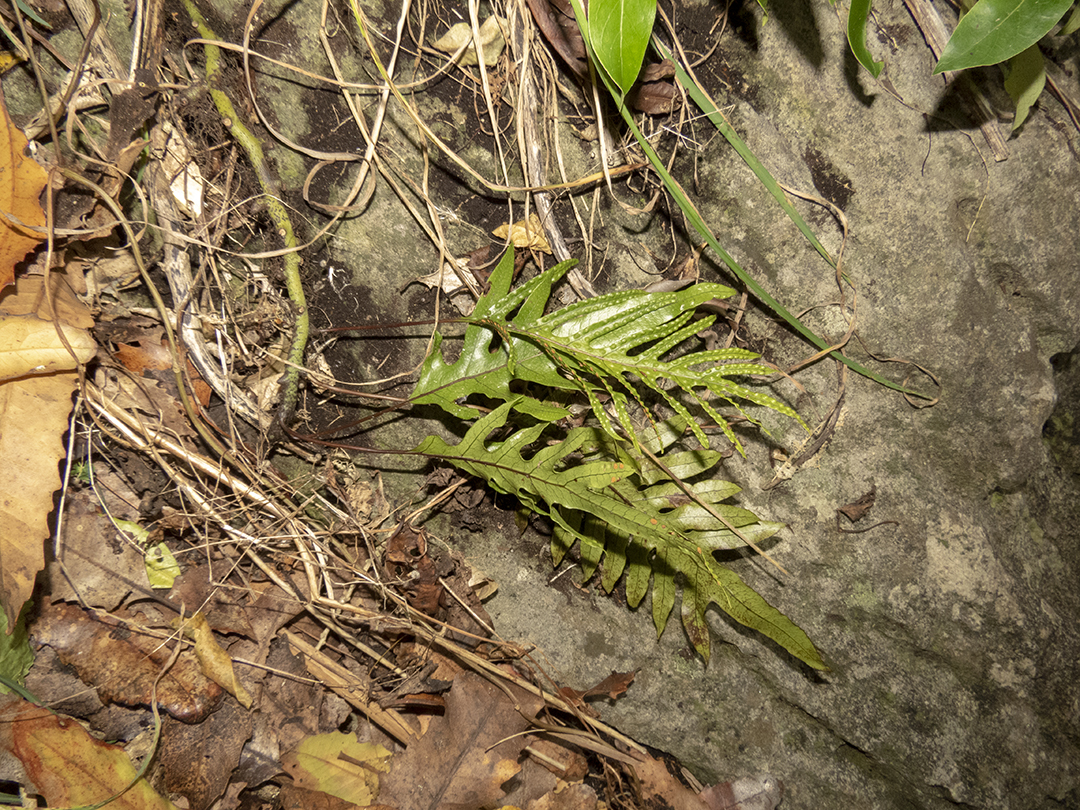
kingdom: Plantae
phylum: Tracheophyta
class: Polypodiopsida
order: Polypodiales
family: Polypodiaceae
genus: Lecanopteris
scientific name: Lecanopteris pustulata
